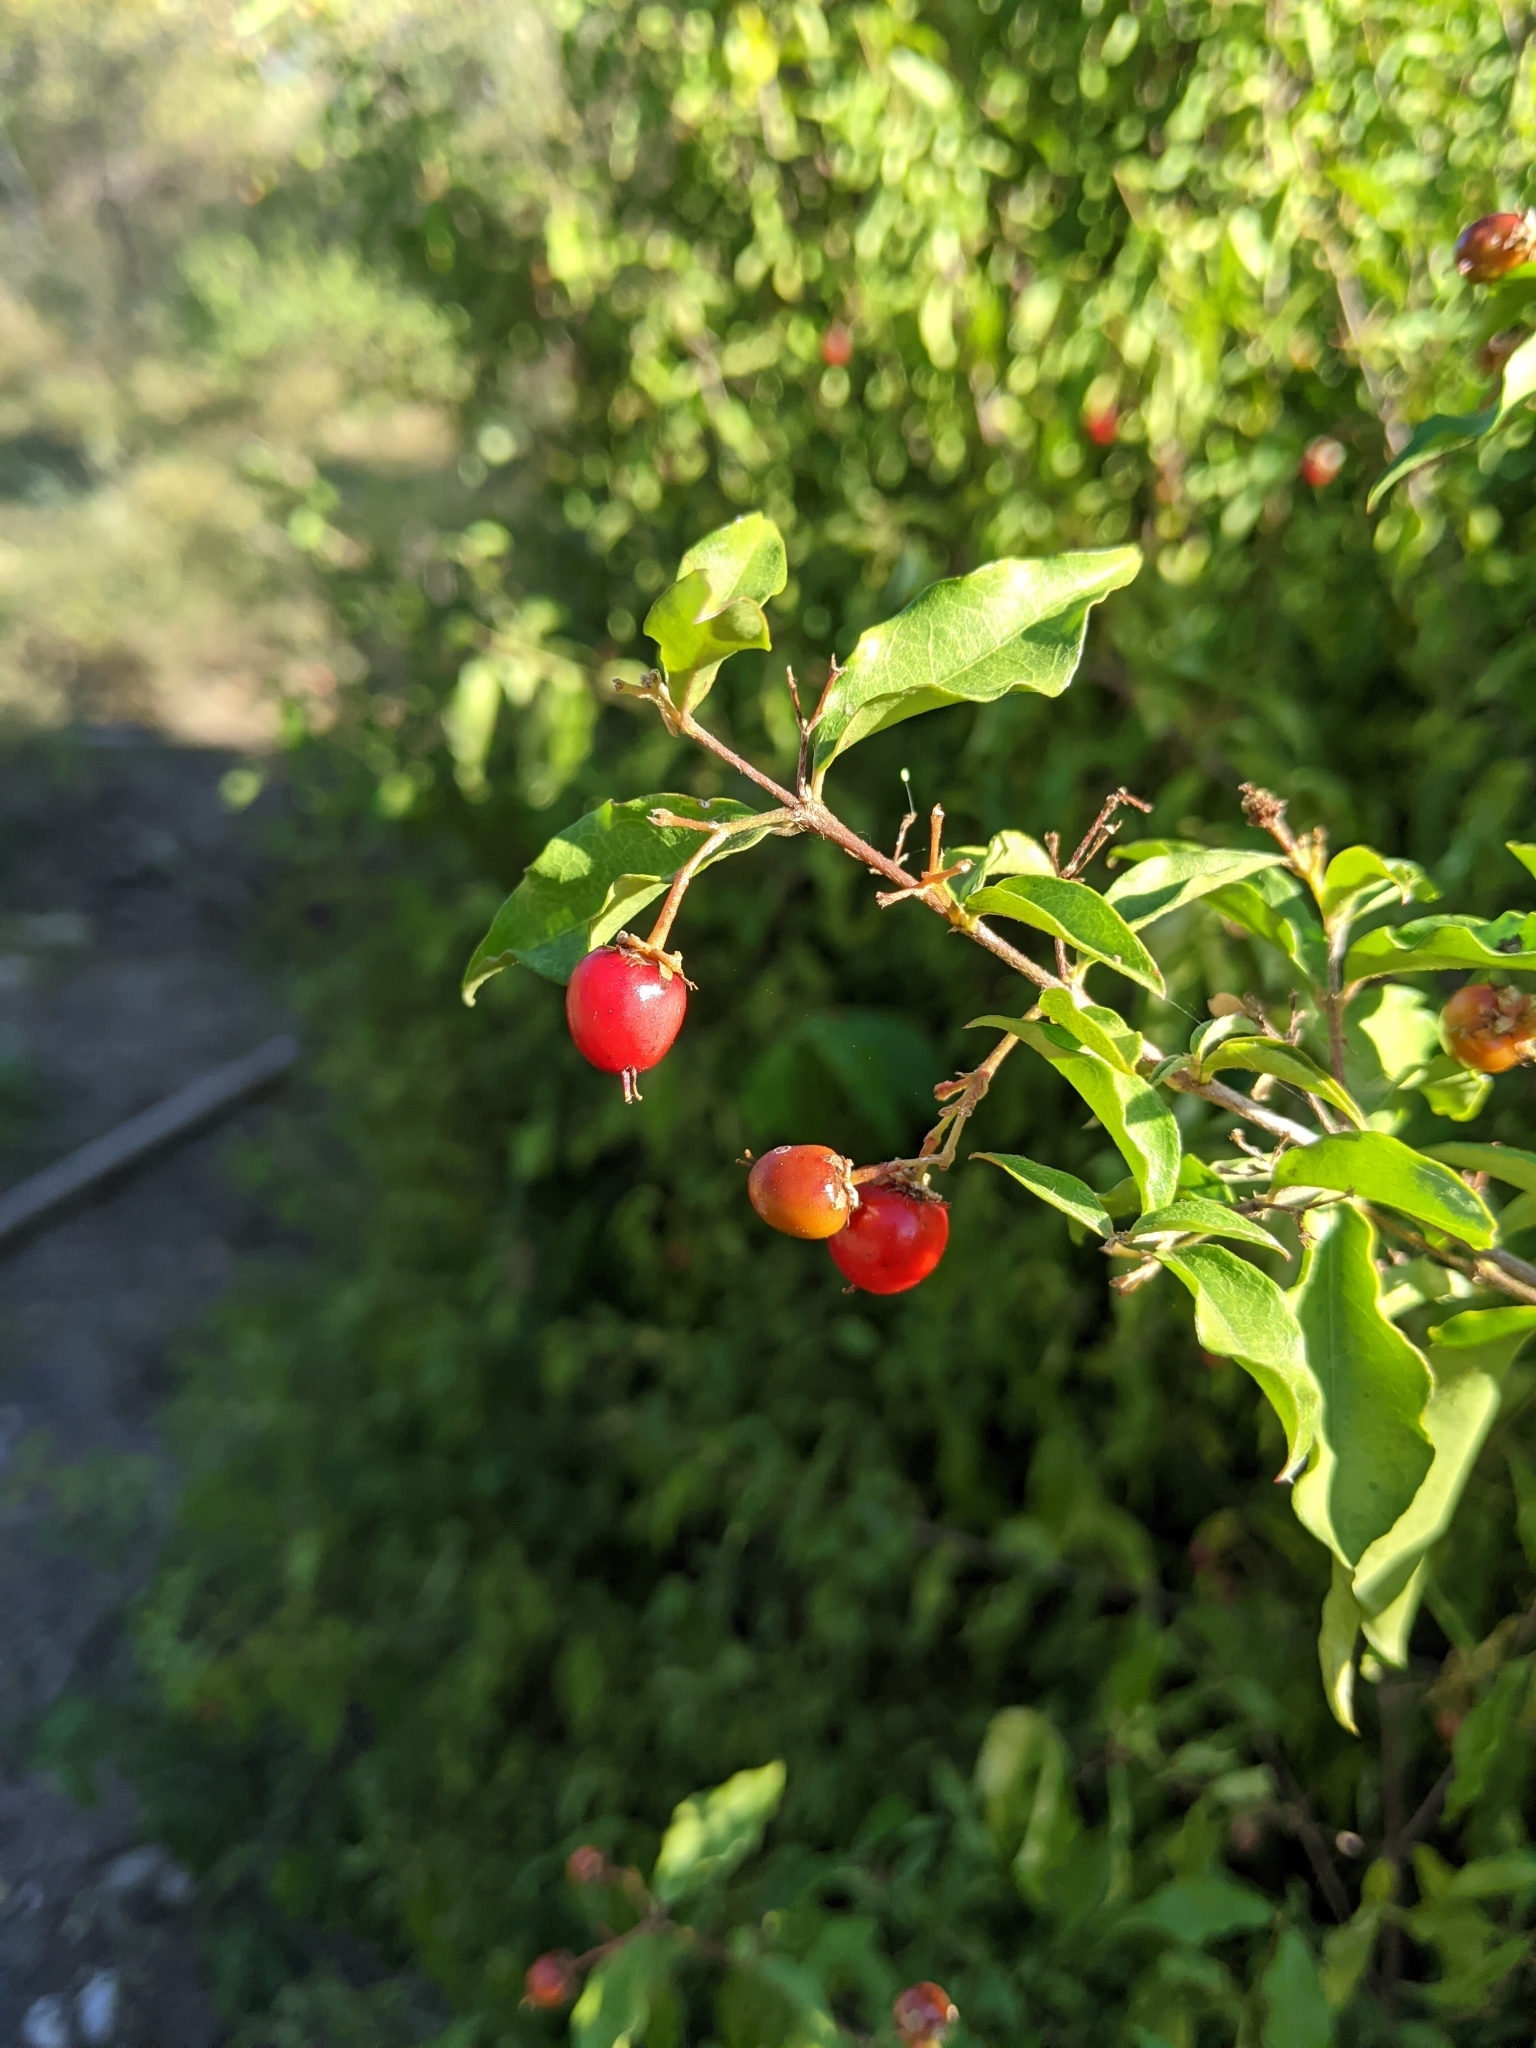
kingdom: Plantae
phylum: Tracheophyta
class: Magnoliopsida
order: Malpighiales
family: Malpighiaceae
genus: Malpighia
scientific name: Malpighia glabra
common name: Barbados cherry
